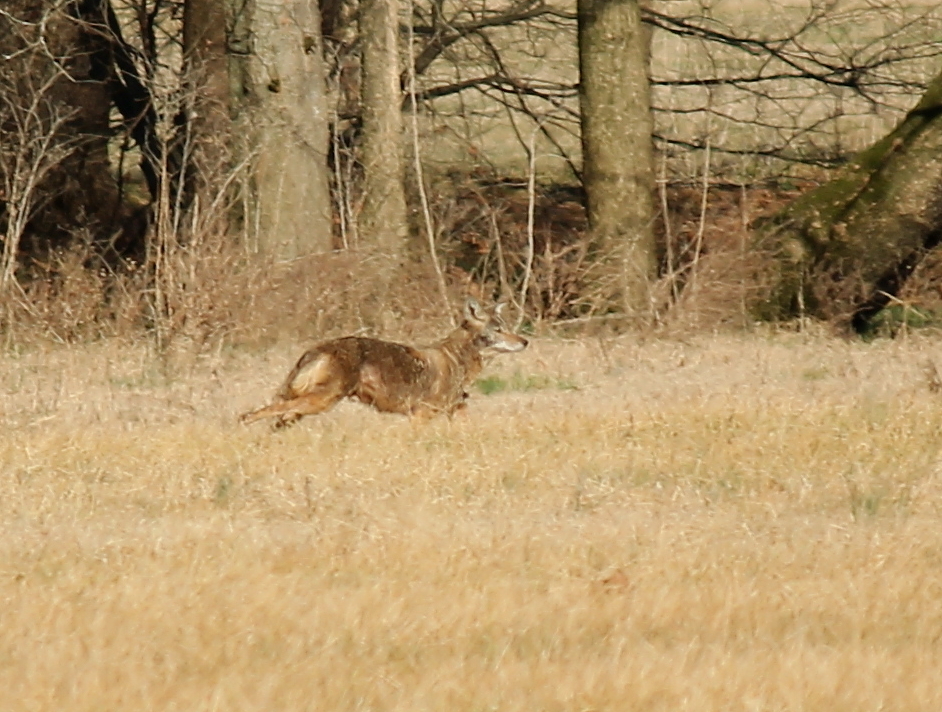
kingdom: Animalia
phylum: Chordata
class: Mammalia
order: Carnivora
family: Canidae
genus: Canis
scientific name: Canis latrans
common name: Coyote
